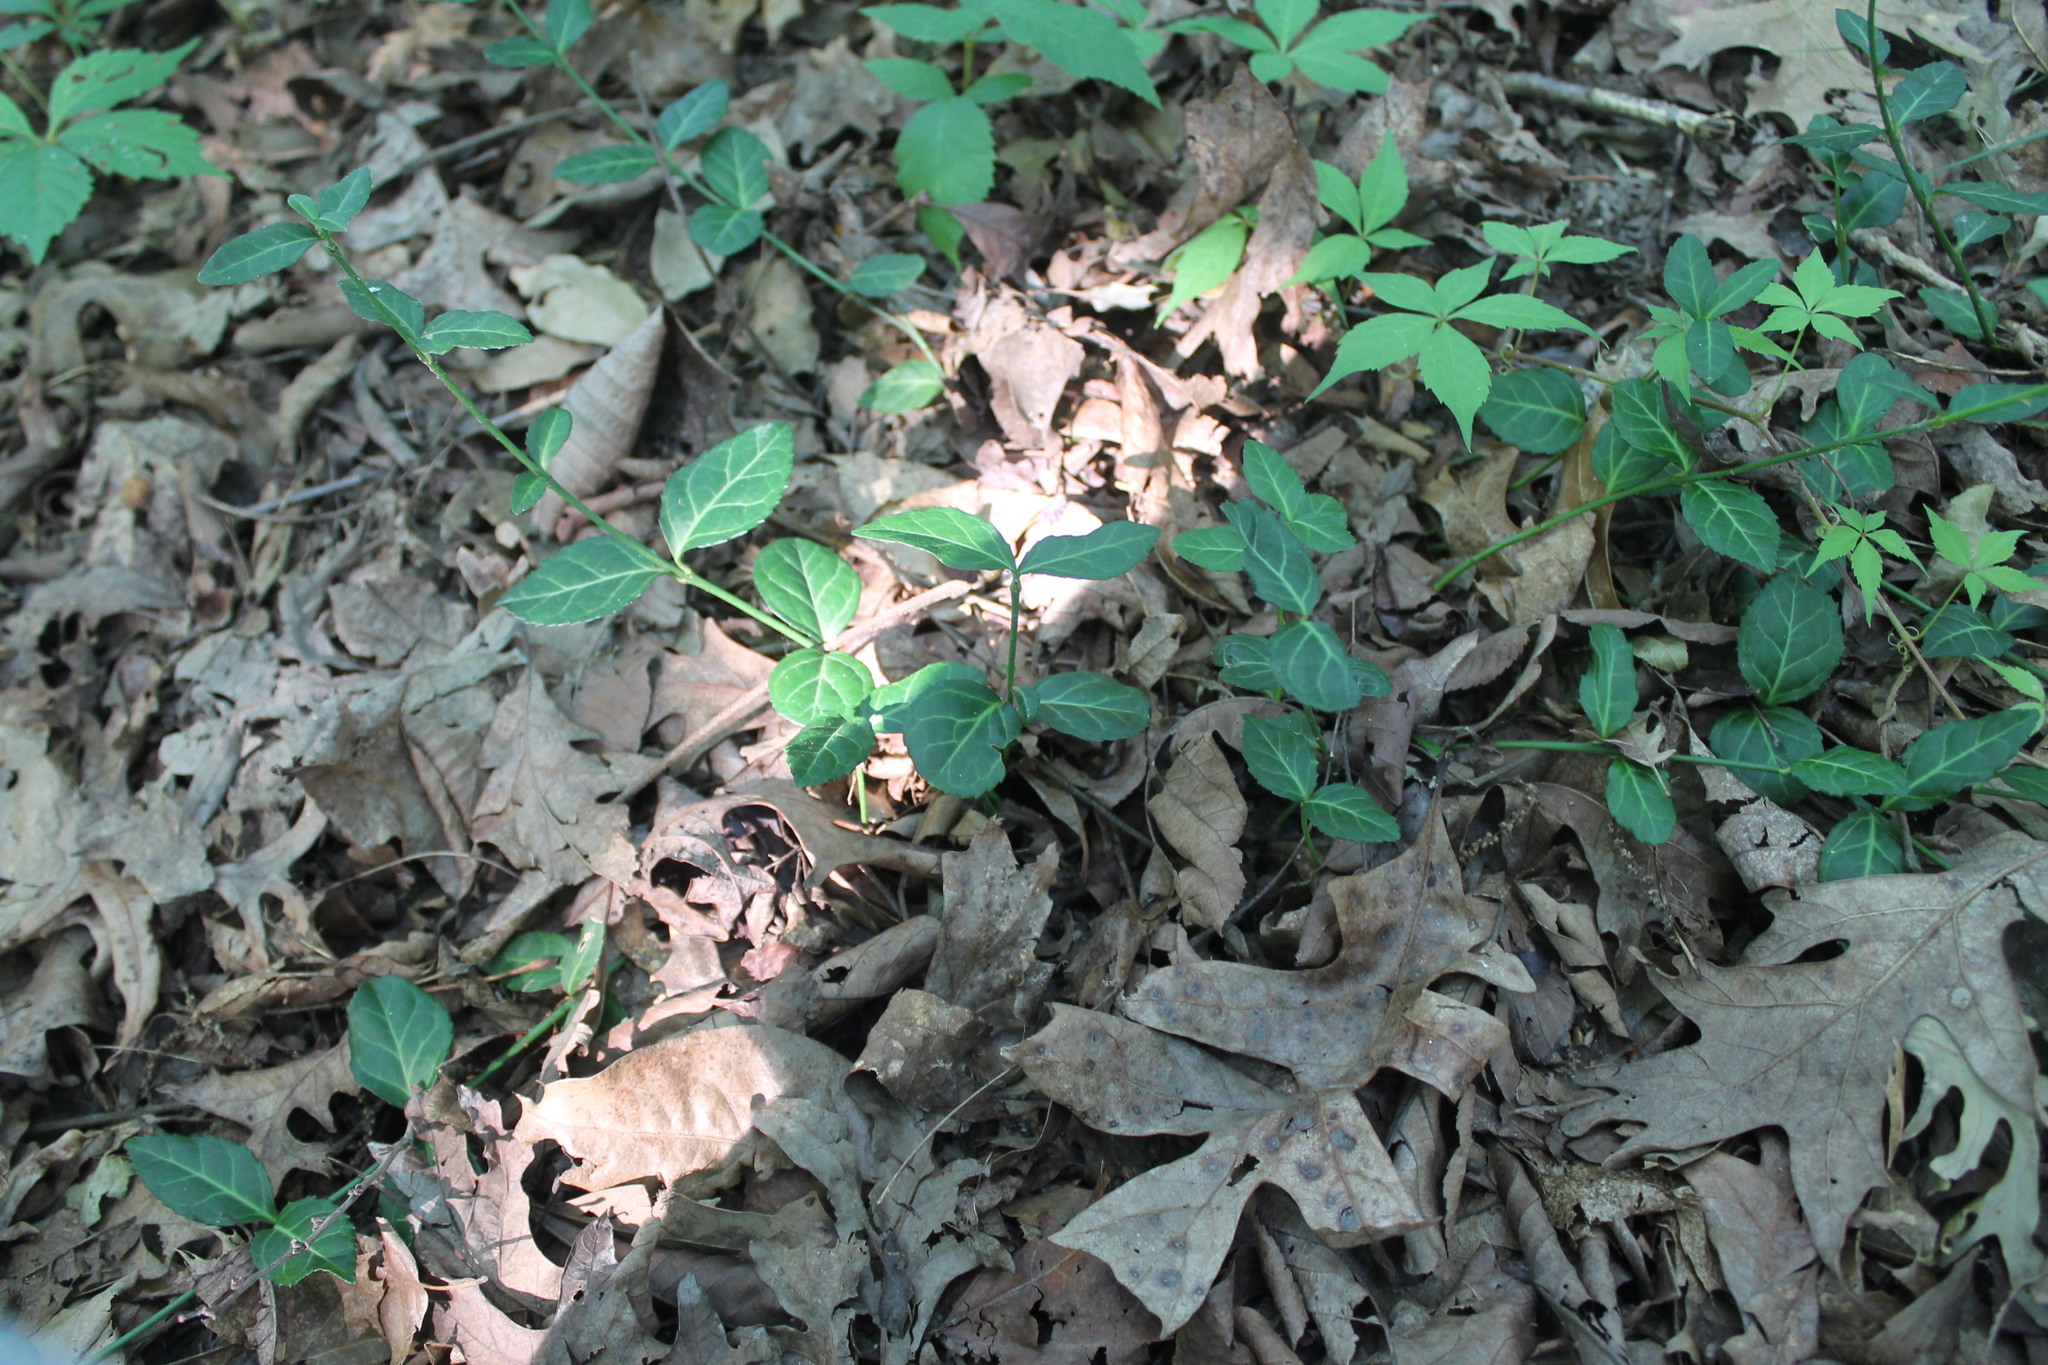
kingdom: Plantae
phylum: Tracheophyta
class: Magnoliopsida
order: Celastrales
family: Celastraceae
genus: Euonymus
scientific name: Euonymus fortunei
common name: Climbing euonymus
